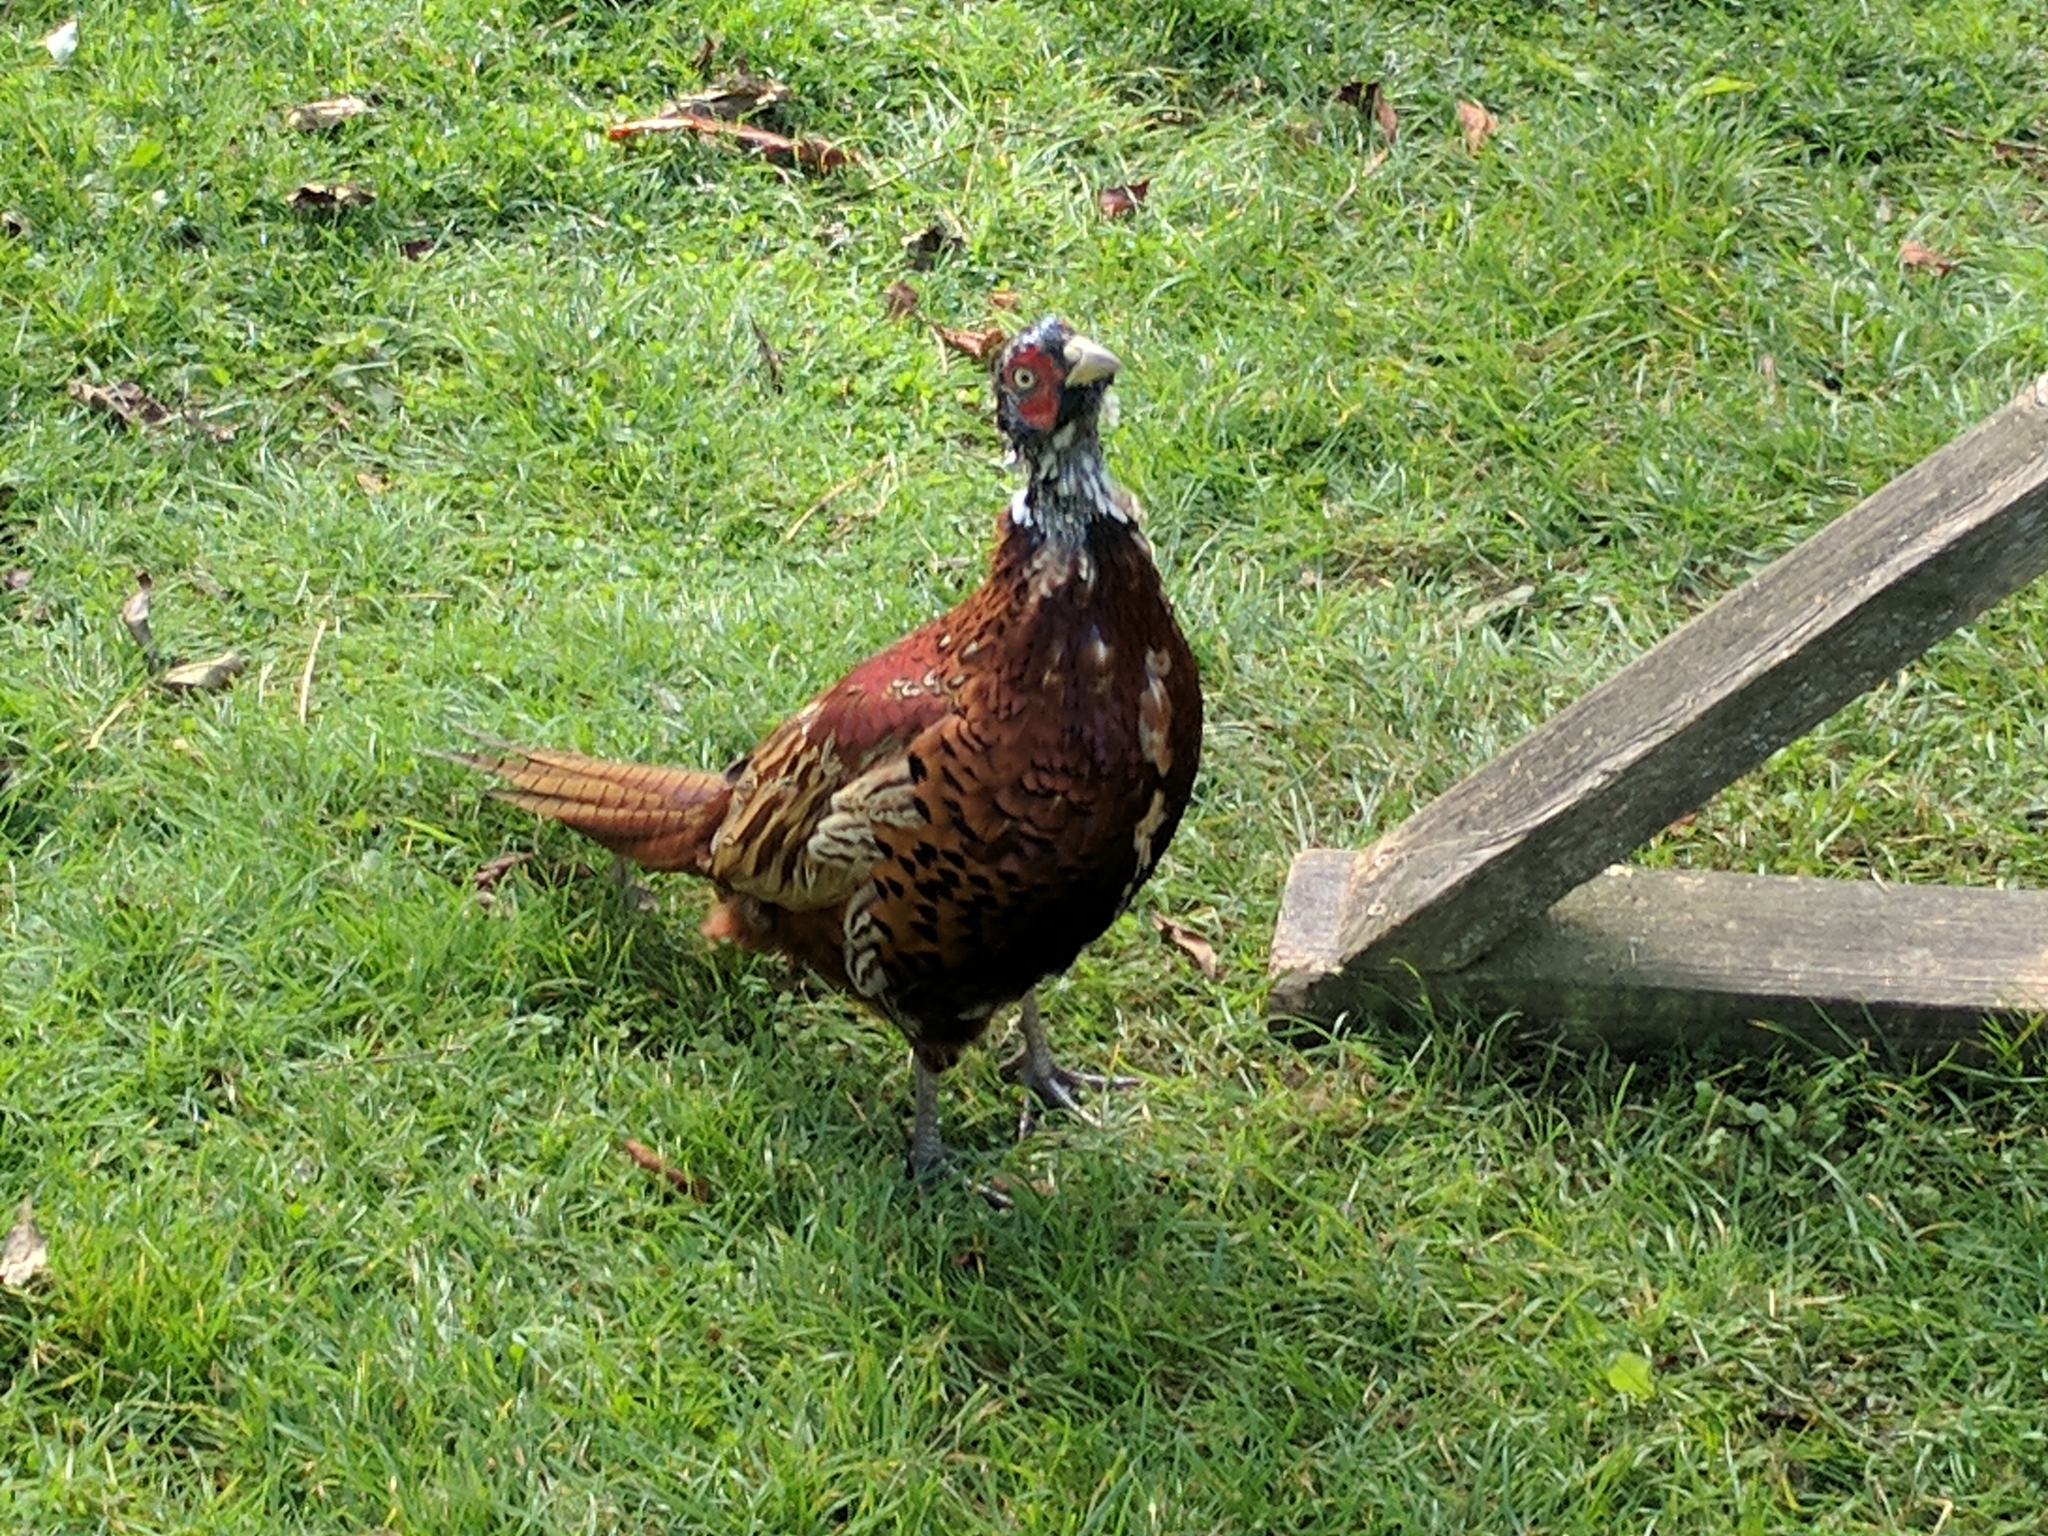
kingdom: Animalia
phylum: Chordata
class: Aves
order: Galliformes
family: Phasianidae
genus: Phasianus
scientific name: Phasianus colchicus
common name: Common pheasant
